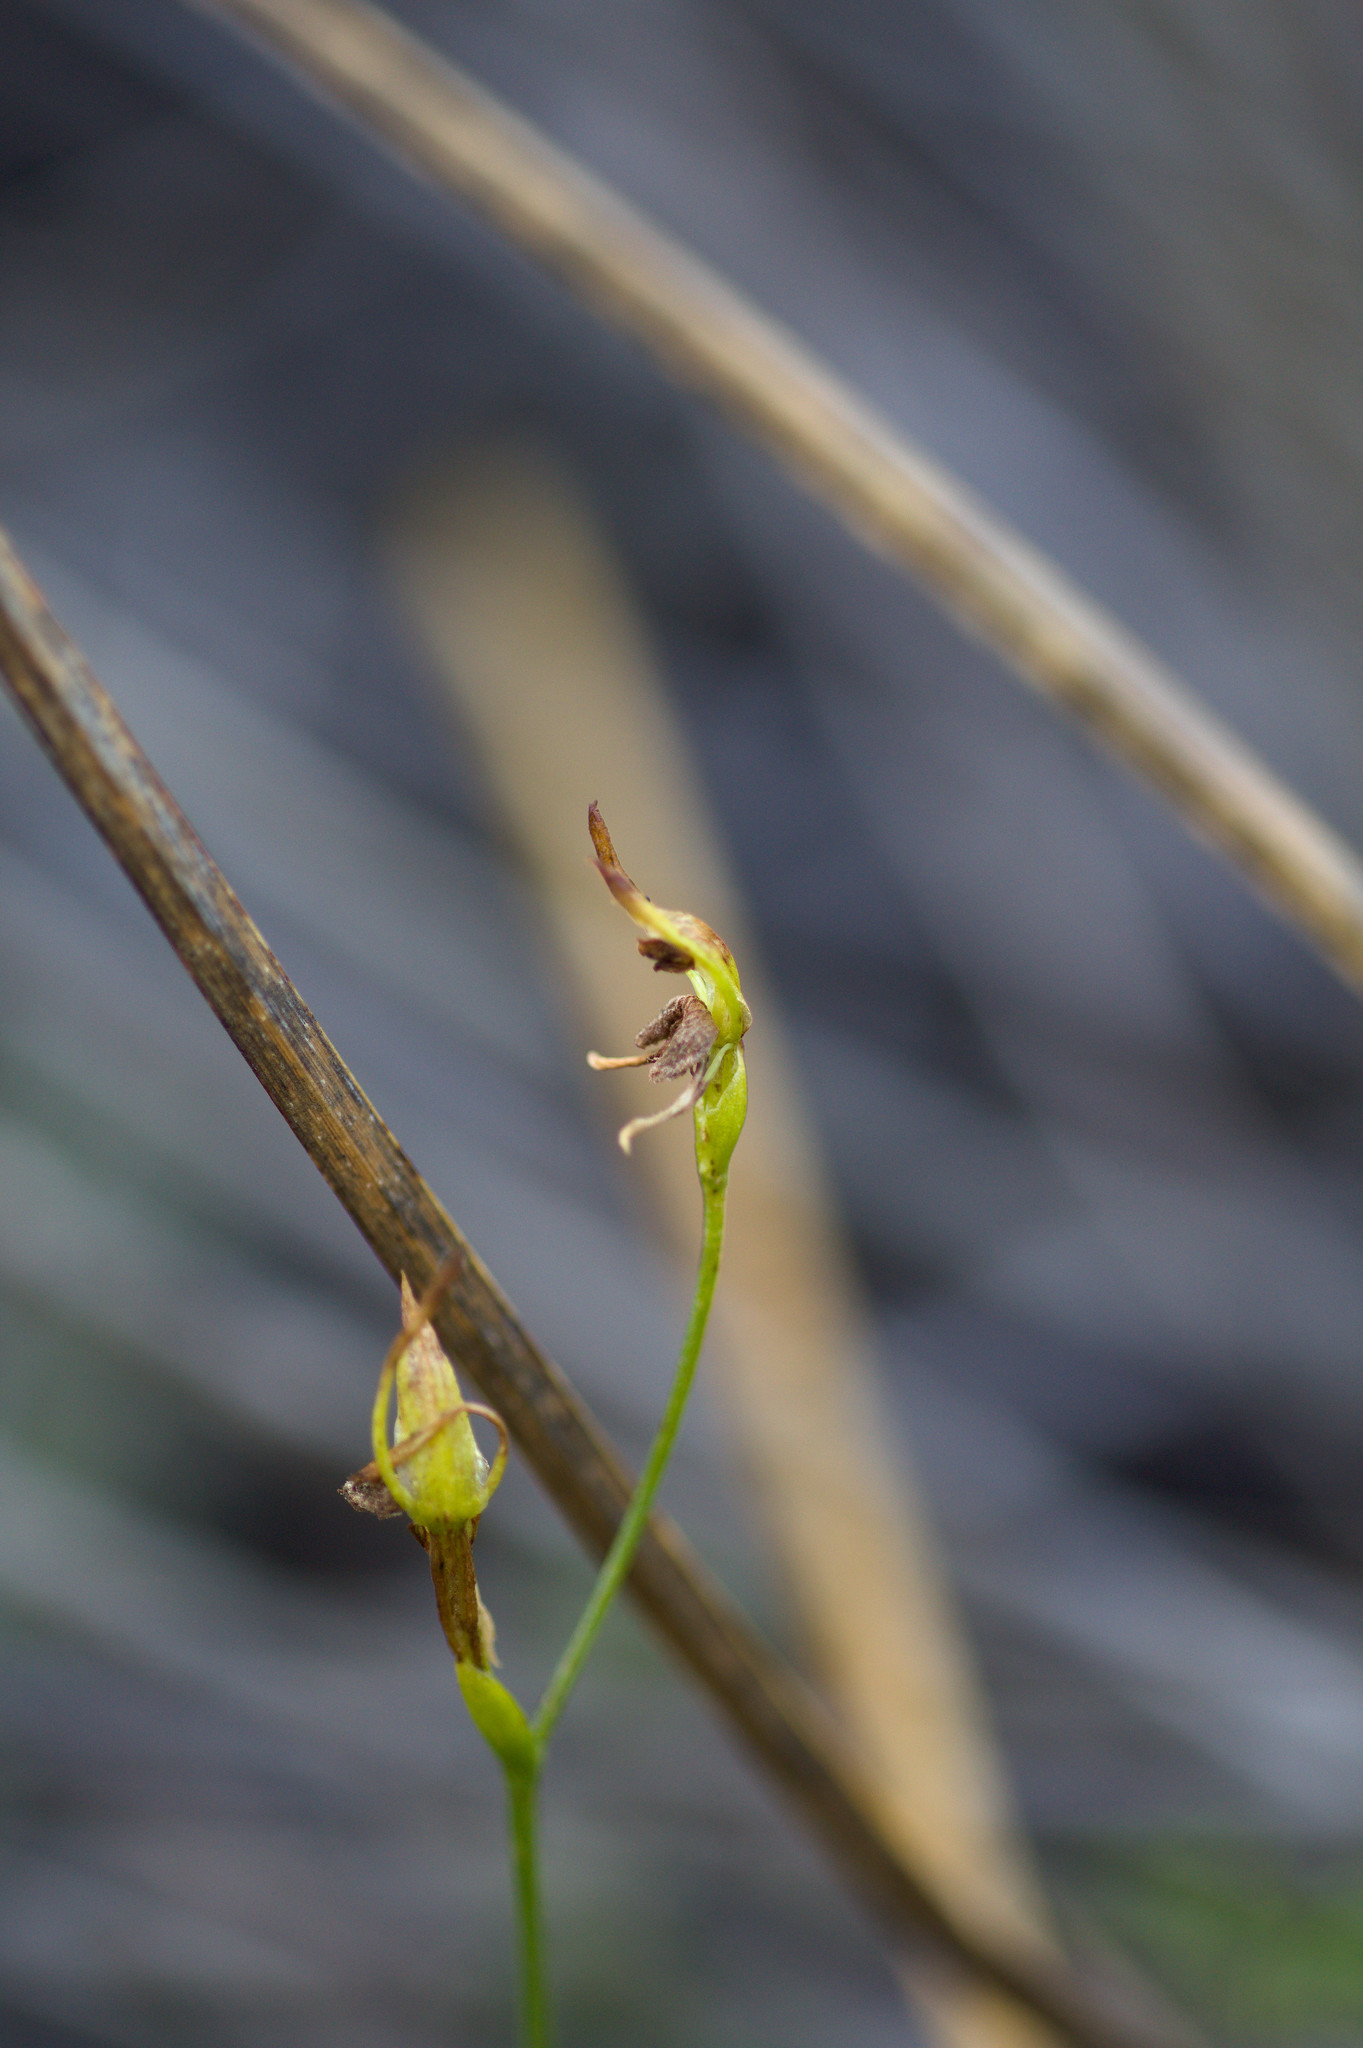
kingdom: Plantae
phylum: Tracheophyta
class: Liliopsida
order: Asparagales
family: Orchidaceae
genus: Leporella
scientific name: Leporella fimbriata
